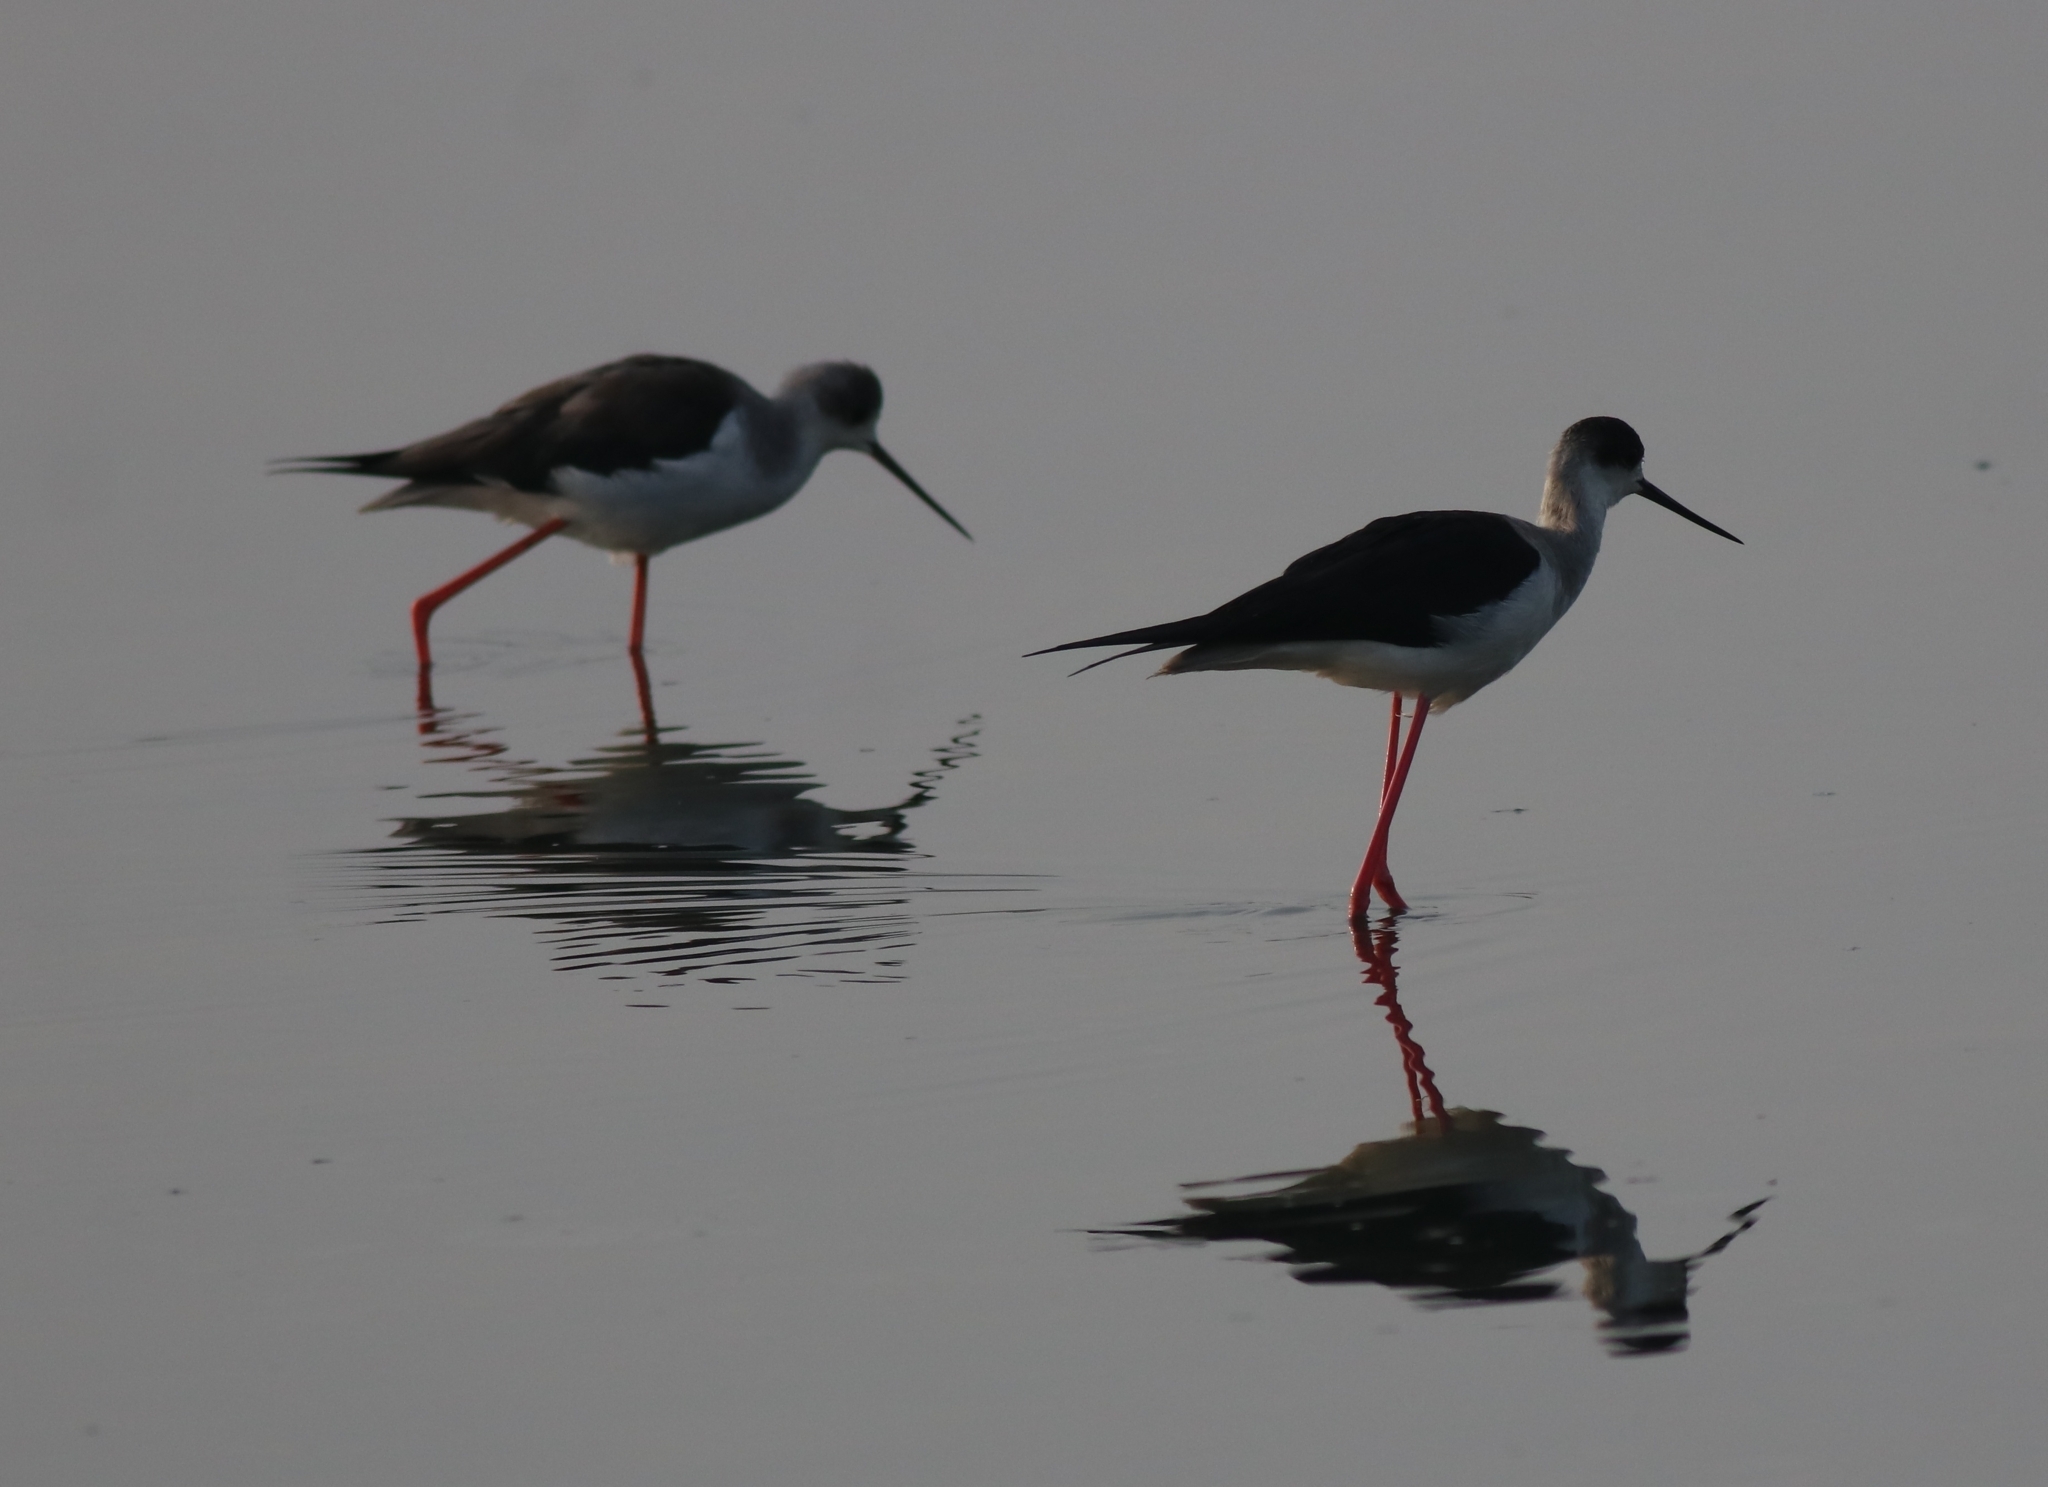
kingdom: Animalia
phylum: Chordata
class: Aves
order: Charadriiformes
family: Recurvirostridae
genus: Himantopus
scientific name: Himantopus himantopus
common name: Black-winged stilt
